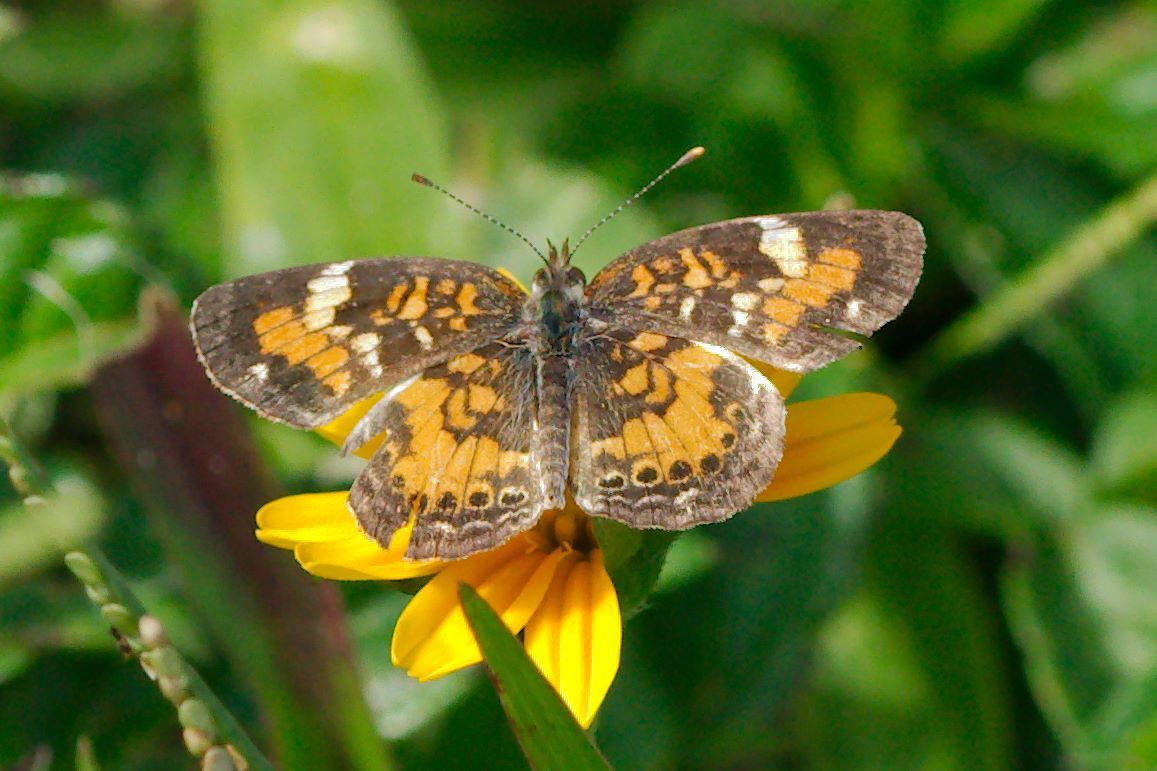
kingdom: Animalia
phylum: Arthropoda
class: Insecta
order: Lepidoptera
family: Nymphalidae
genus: Phyciodes
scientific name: Phyciodes phaon
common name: Phaon crescent
